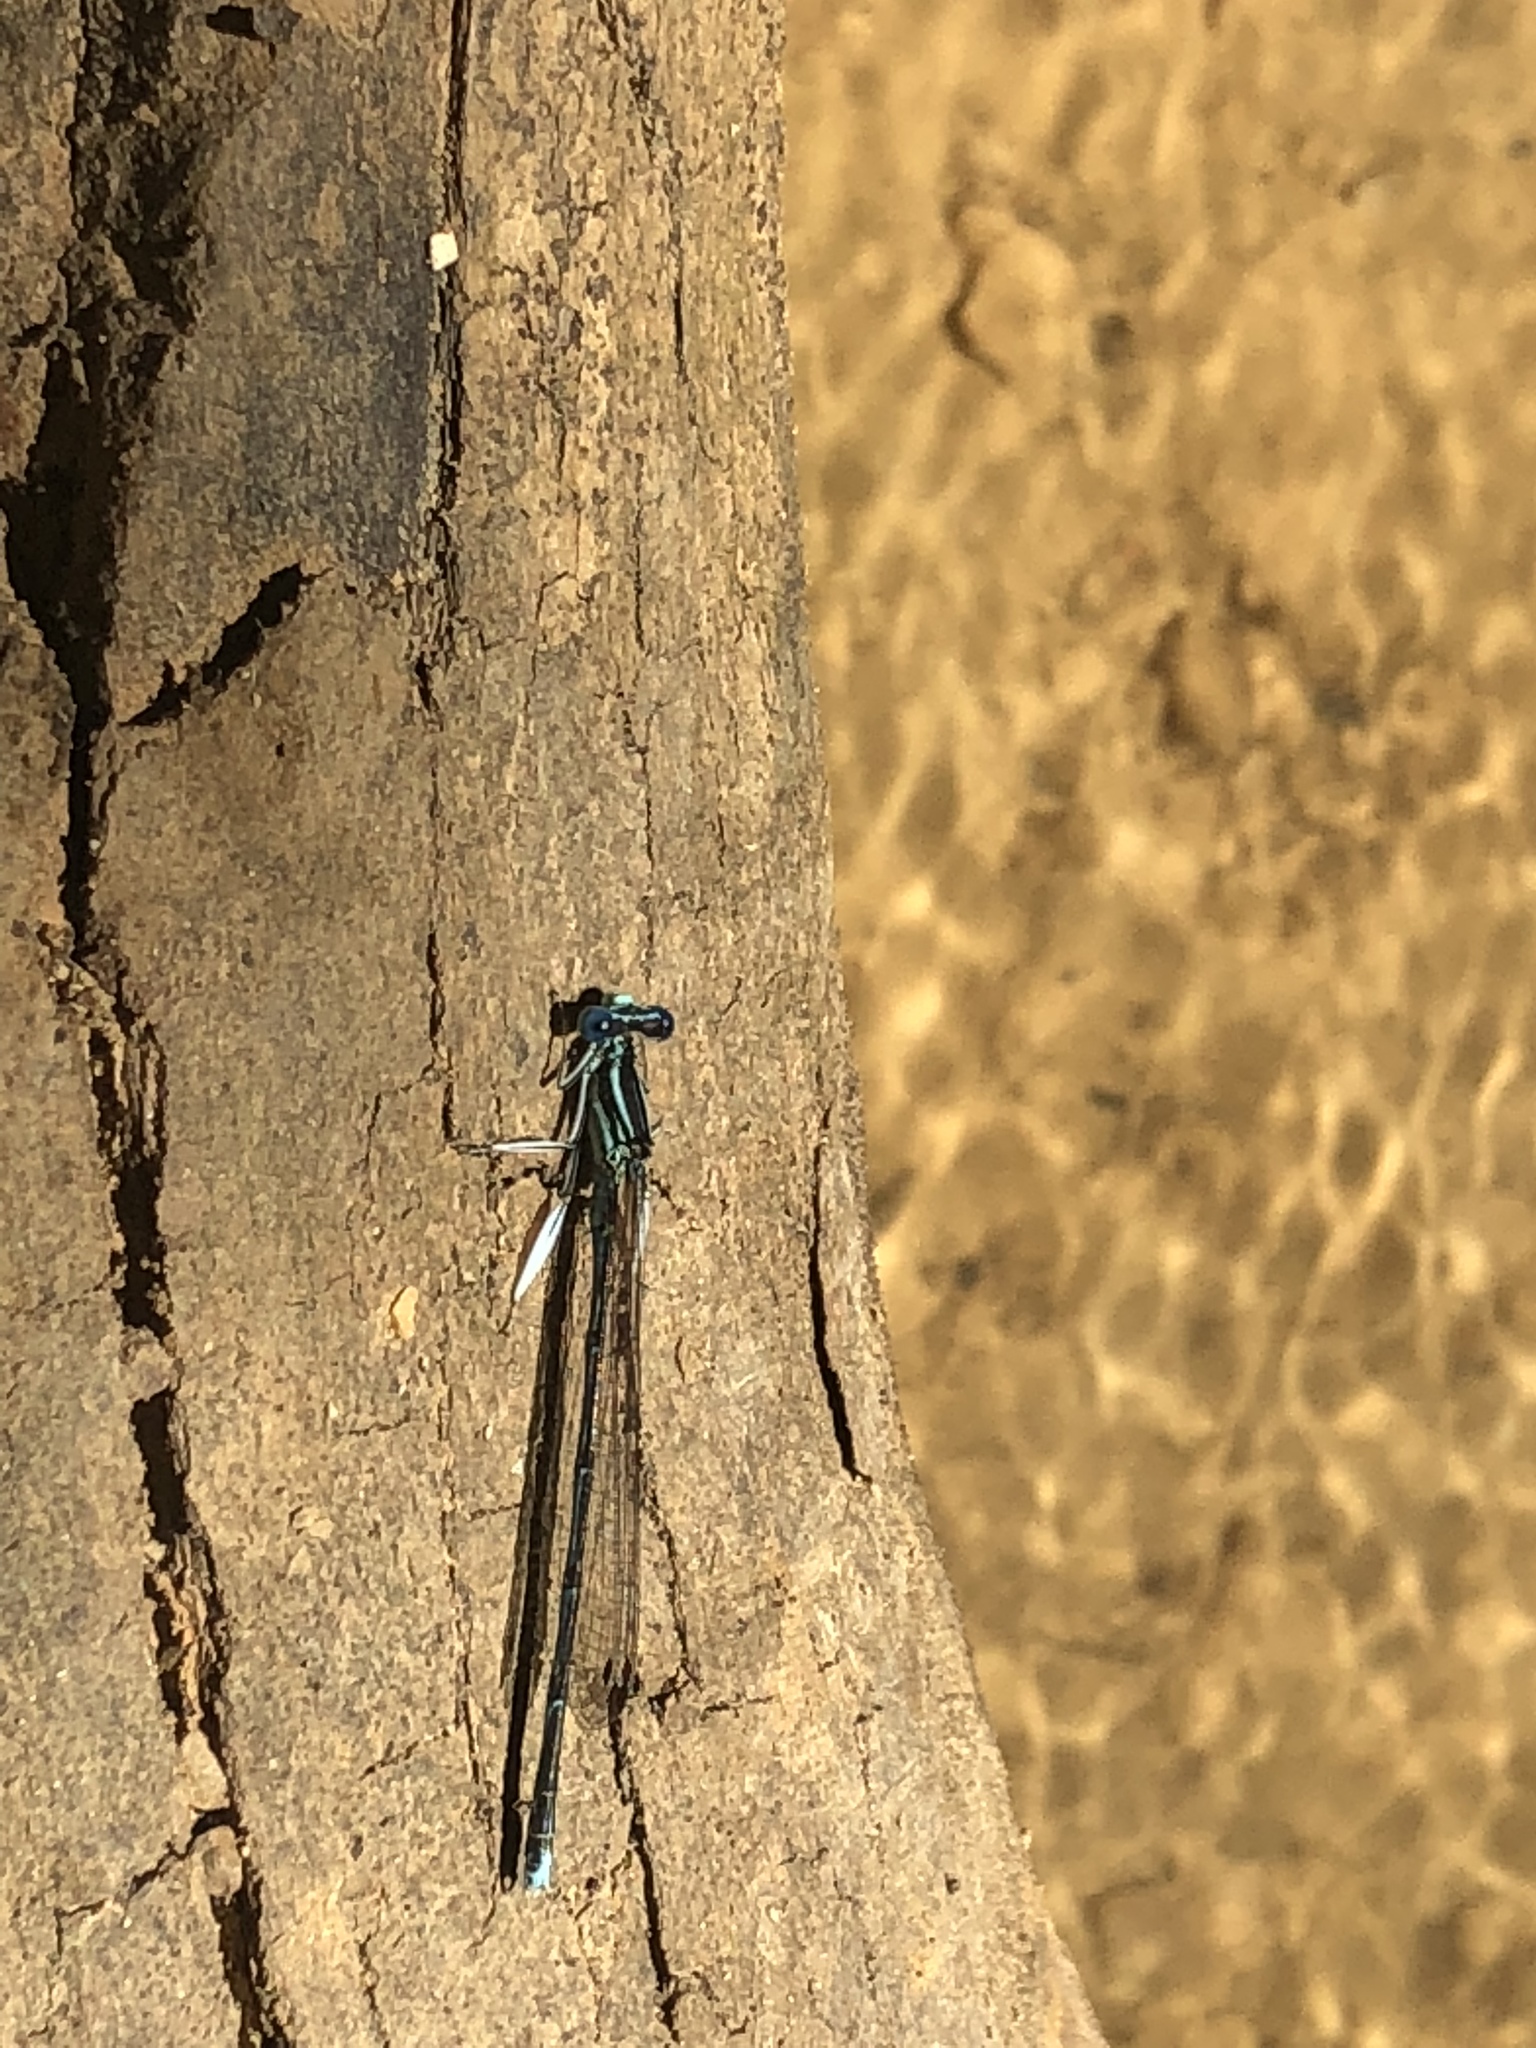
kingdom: Animalia
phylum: Arthropoda
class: Insecta
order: Odonata
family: Platycnemididae
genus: Platycnemis
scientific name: Platycnemis pennipes
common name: White-legged damselfly
